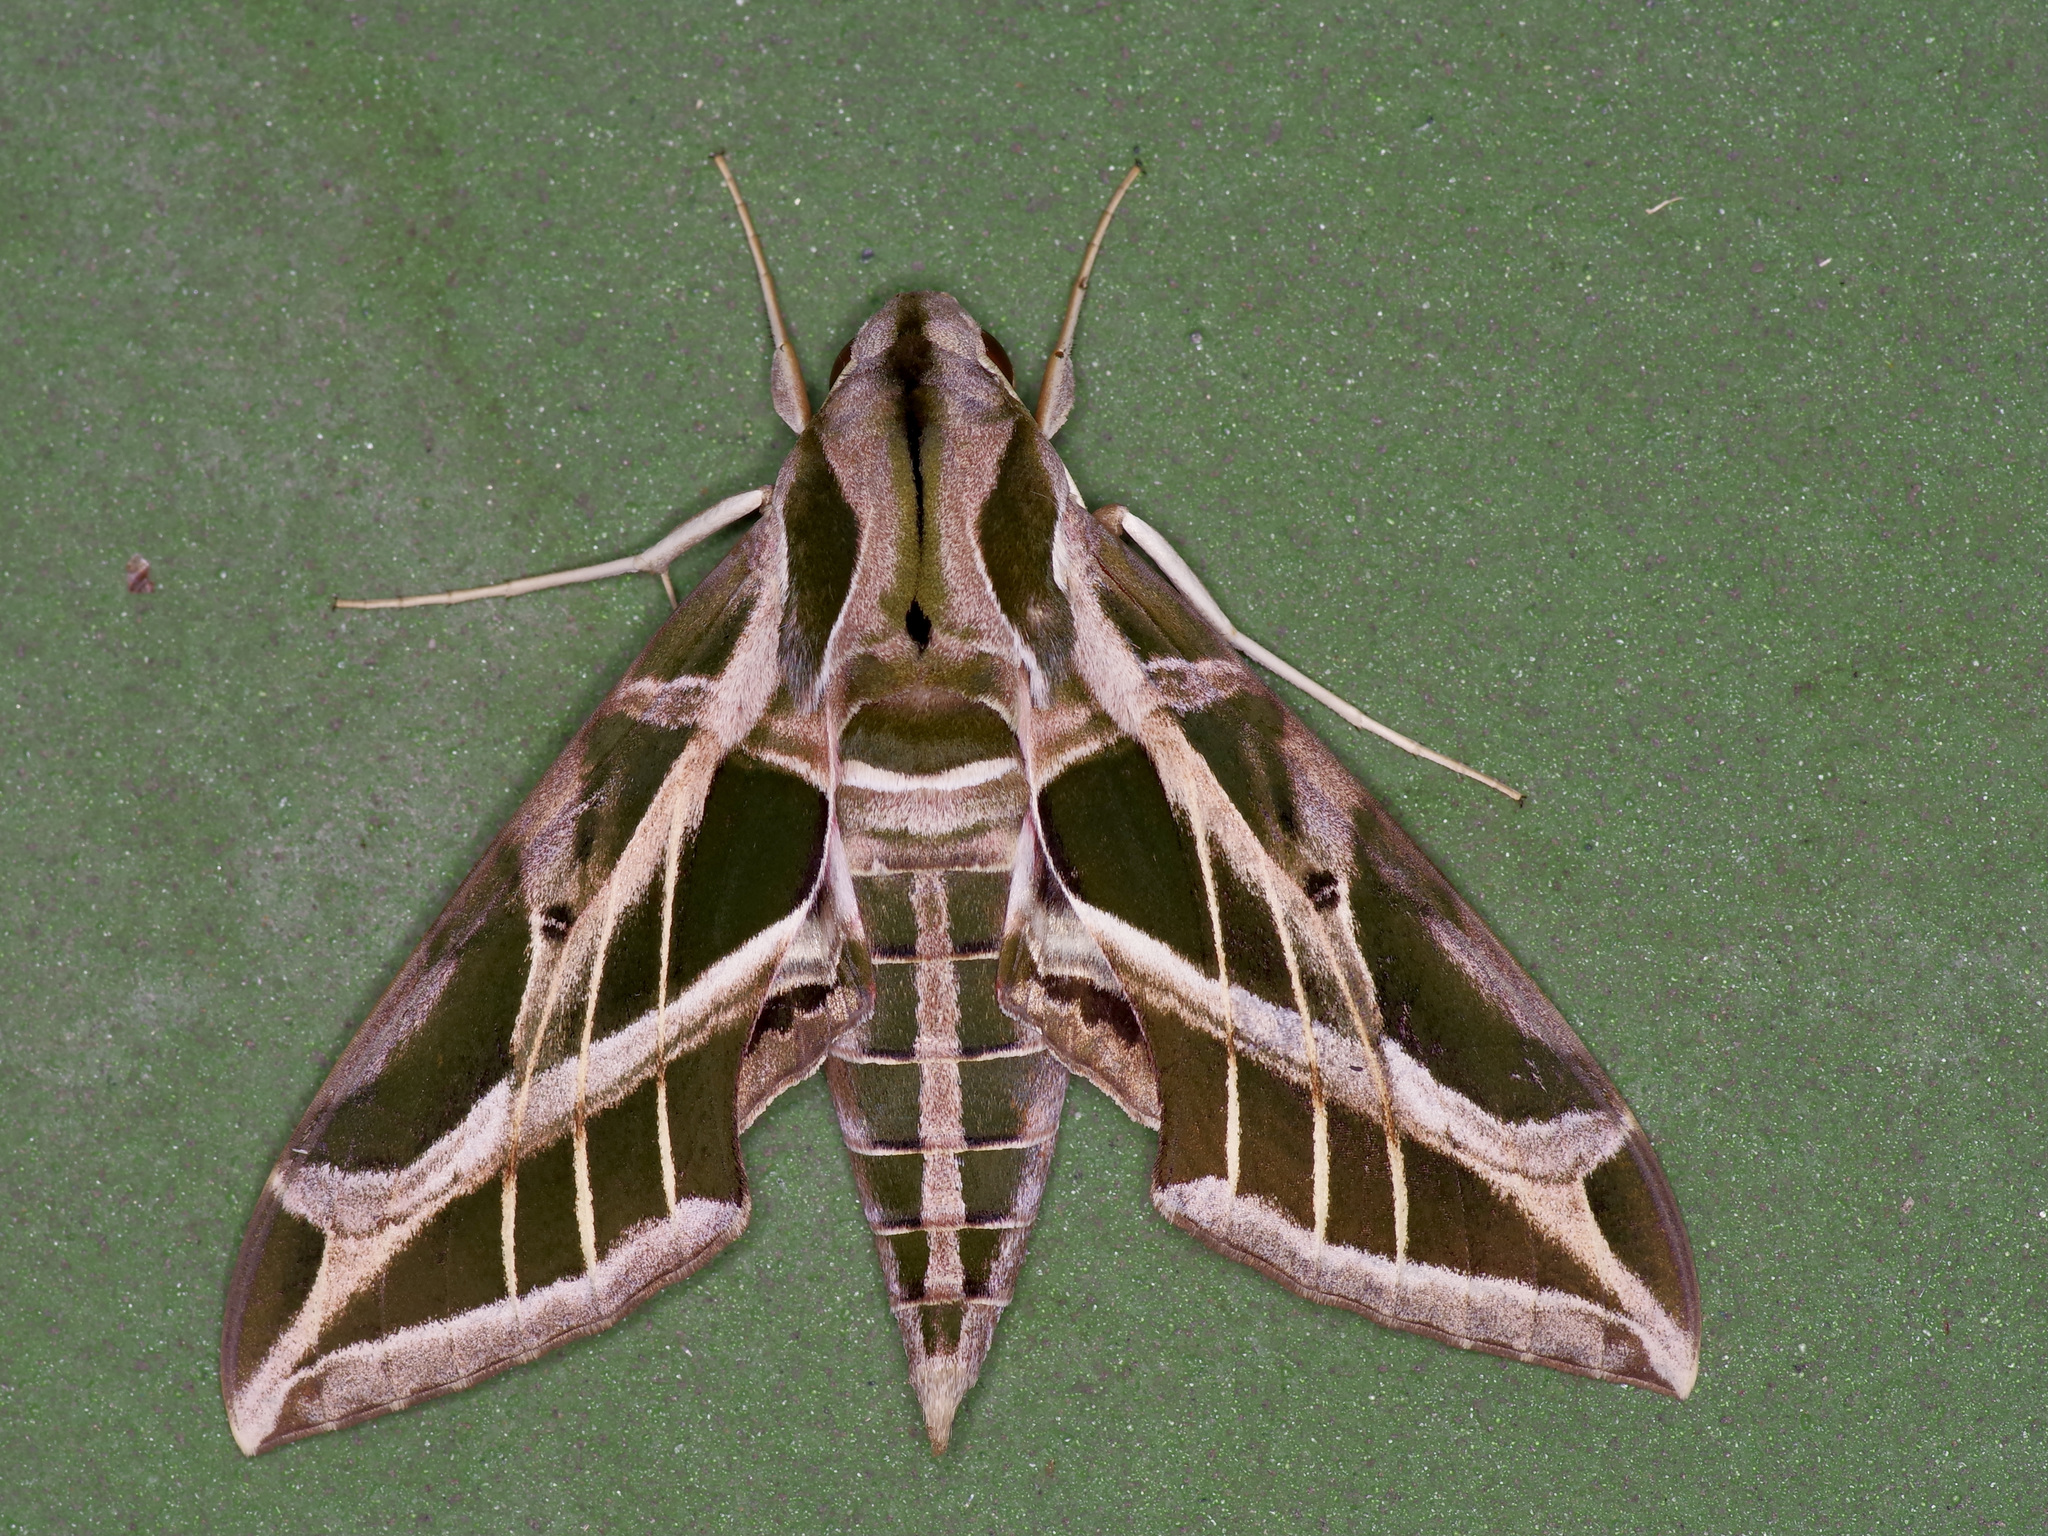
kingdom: Animalia
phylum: Arthropoda
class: Insecta
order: Lepidoptera
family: Sphingidae
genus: Eumorpha
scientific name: Eumorpha vitis
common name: Vine sphinx
